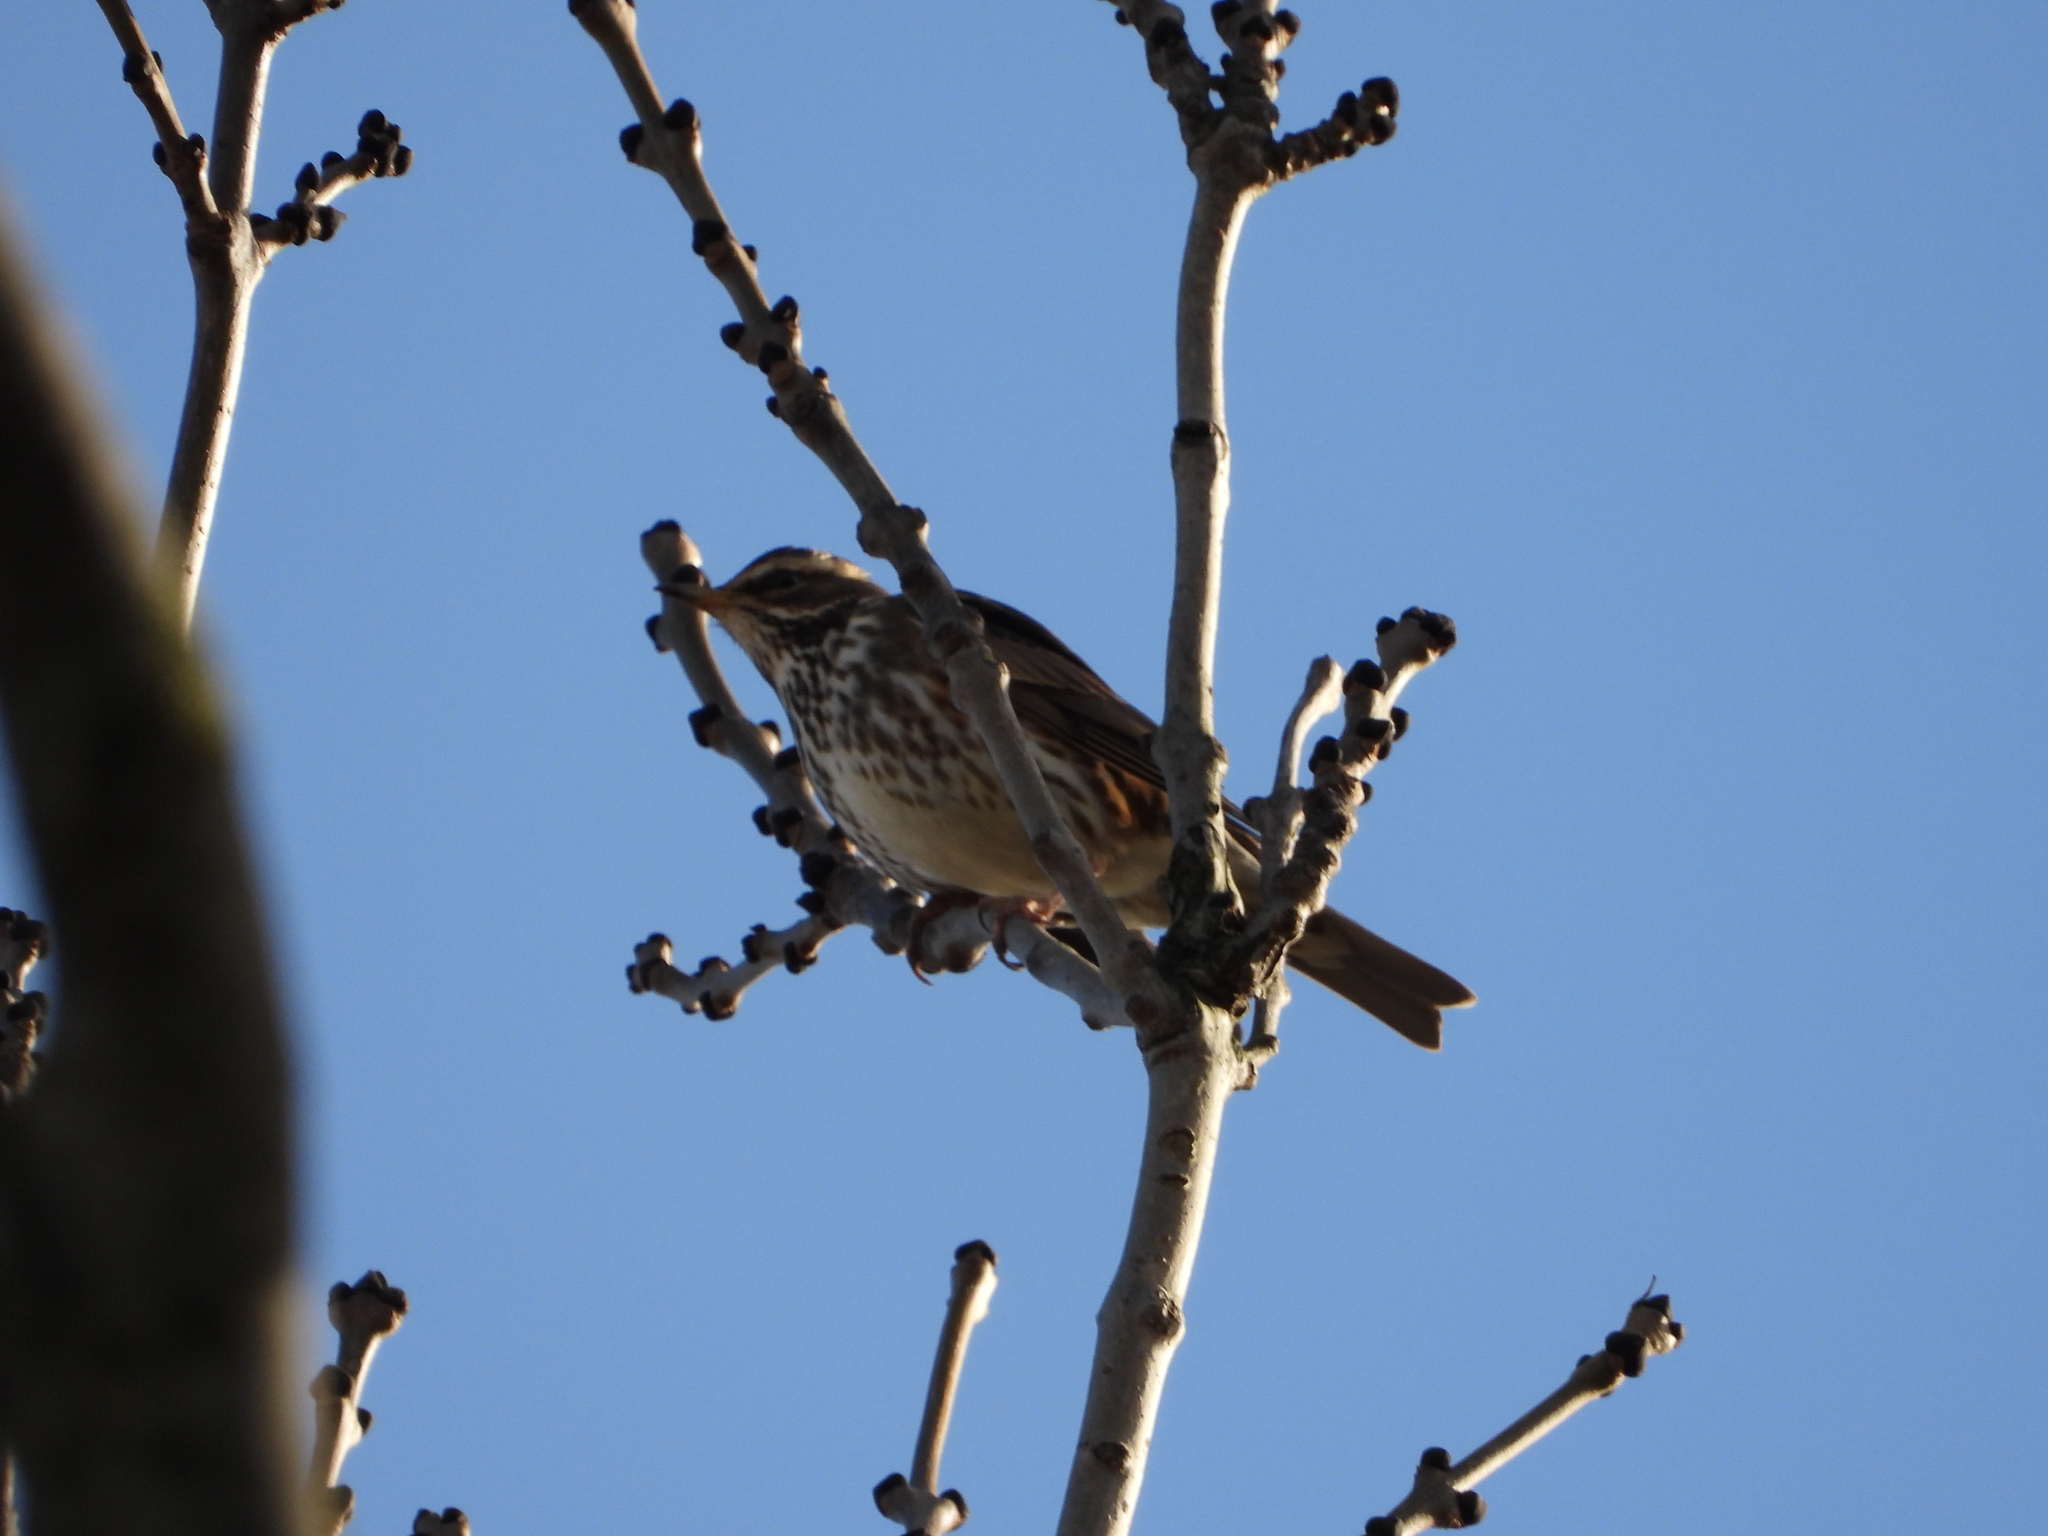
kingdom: Animalia
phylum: Chordata
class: Aves
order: Passeriformes
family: Turdidae
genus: Turdus
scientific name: Turdus iliacus
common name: Redwing
